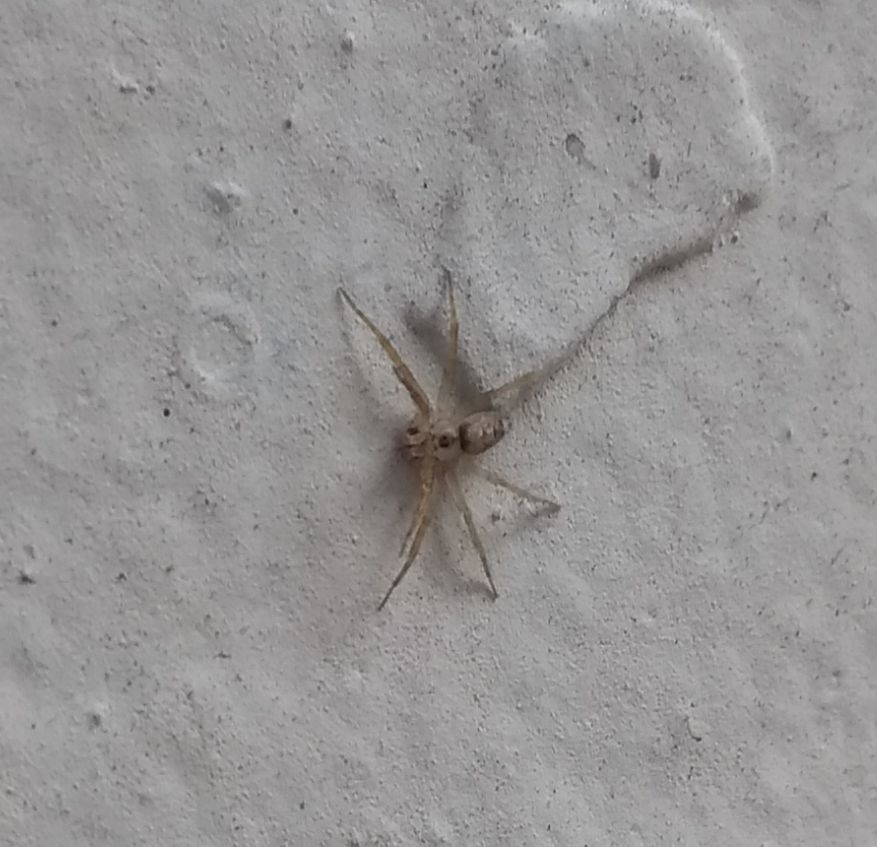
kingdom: Animalia
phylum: Arthropoda
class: Arachnida
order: Araneae
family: Oecobiidae
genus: Oecobius
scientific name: Oecobius navus
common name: Flatmesh weaver
